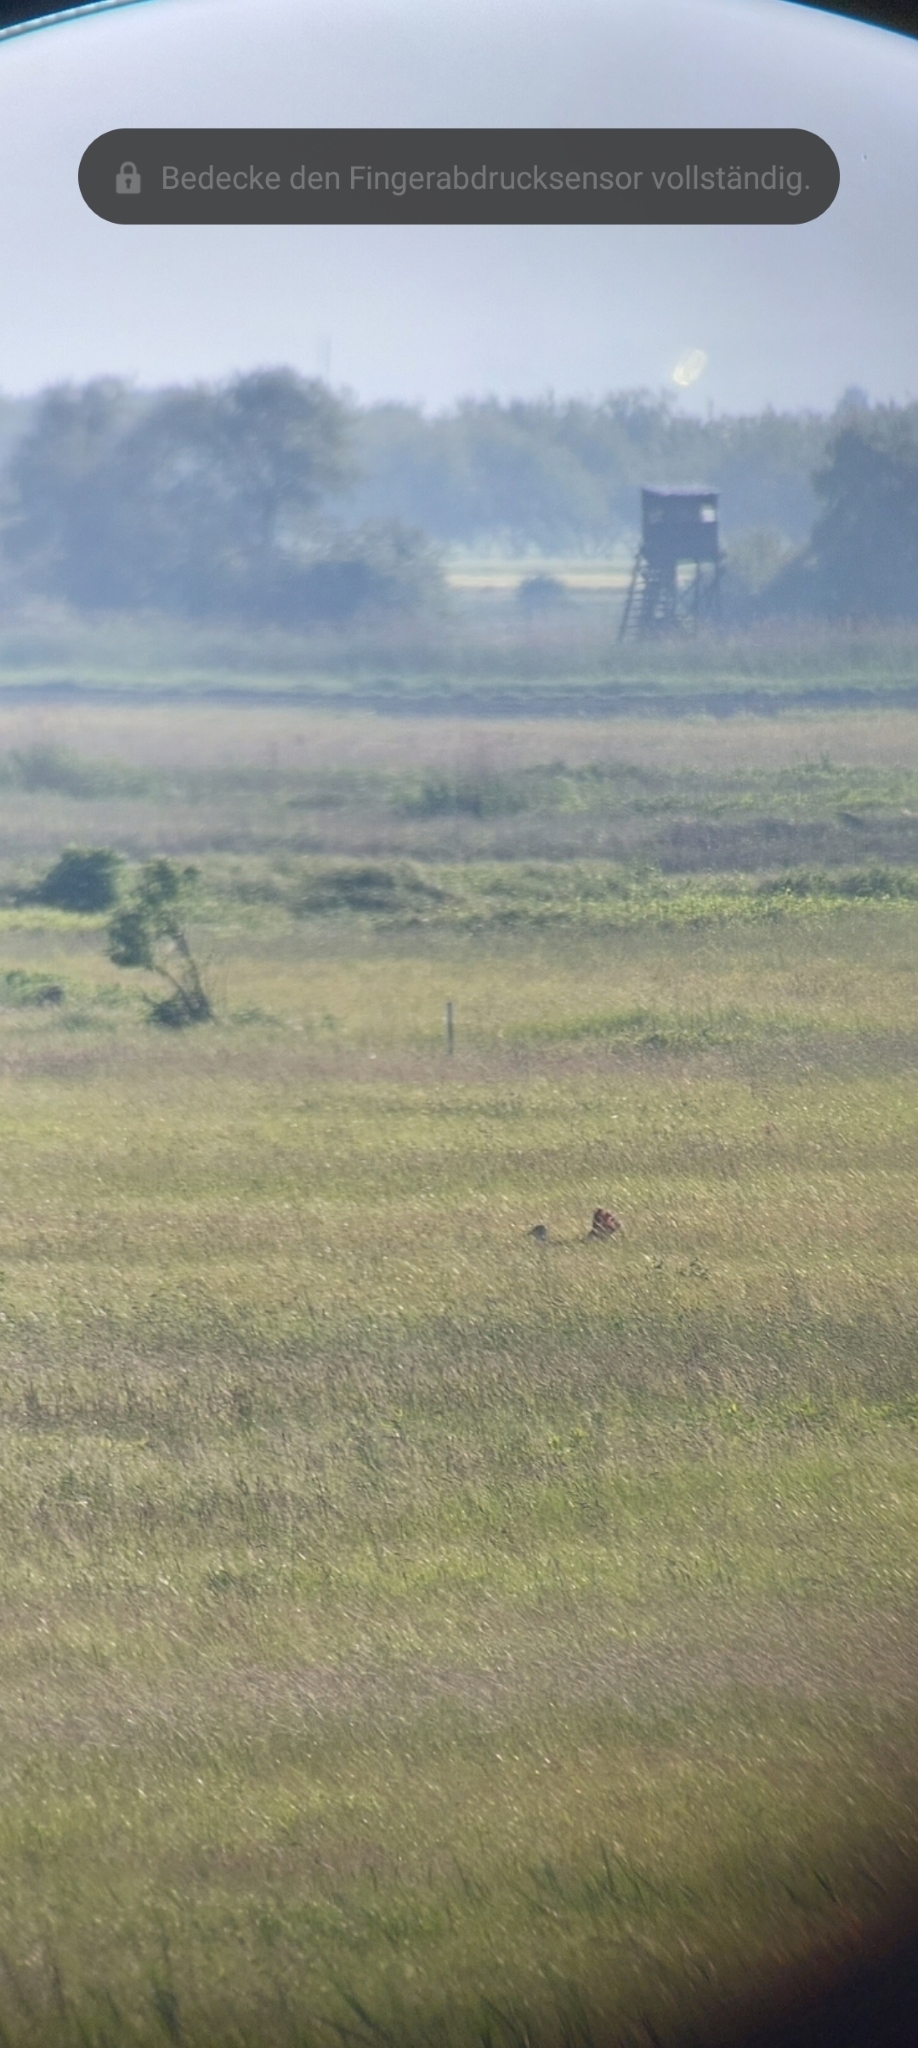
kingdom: Animalia
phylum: Chordata
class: Aves
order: Otidiformes
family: Otididae
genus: Otis
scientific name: Otis tarda
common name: Great bustard
